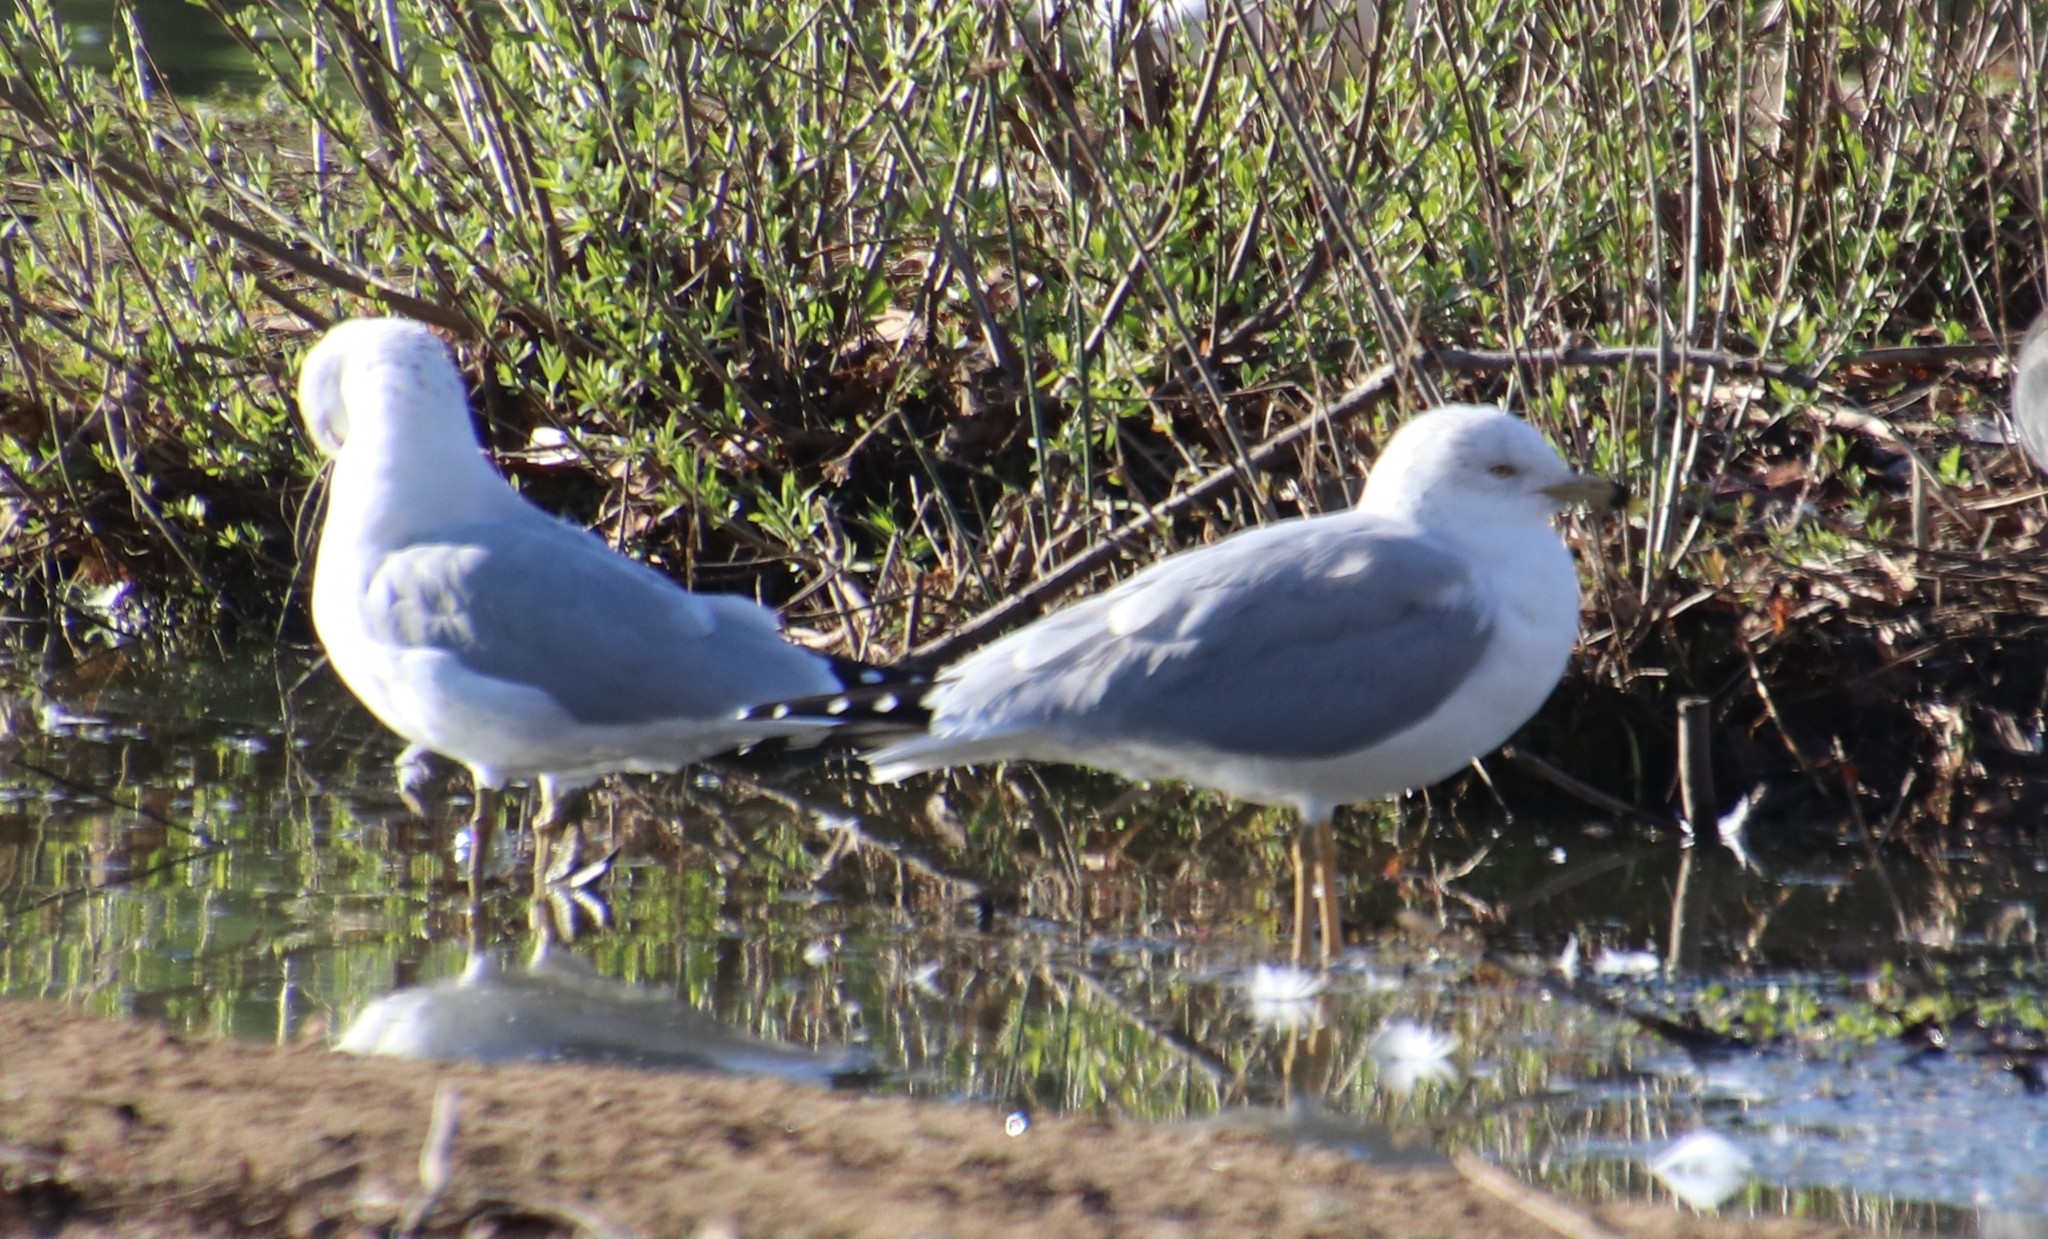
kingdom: Animalia
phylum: Chordata
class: Aves
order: Charadriiformes
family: Laridae
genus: Larus
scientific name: Larus delawarensis
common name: Ring-billed gull
